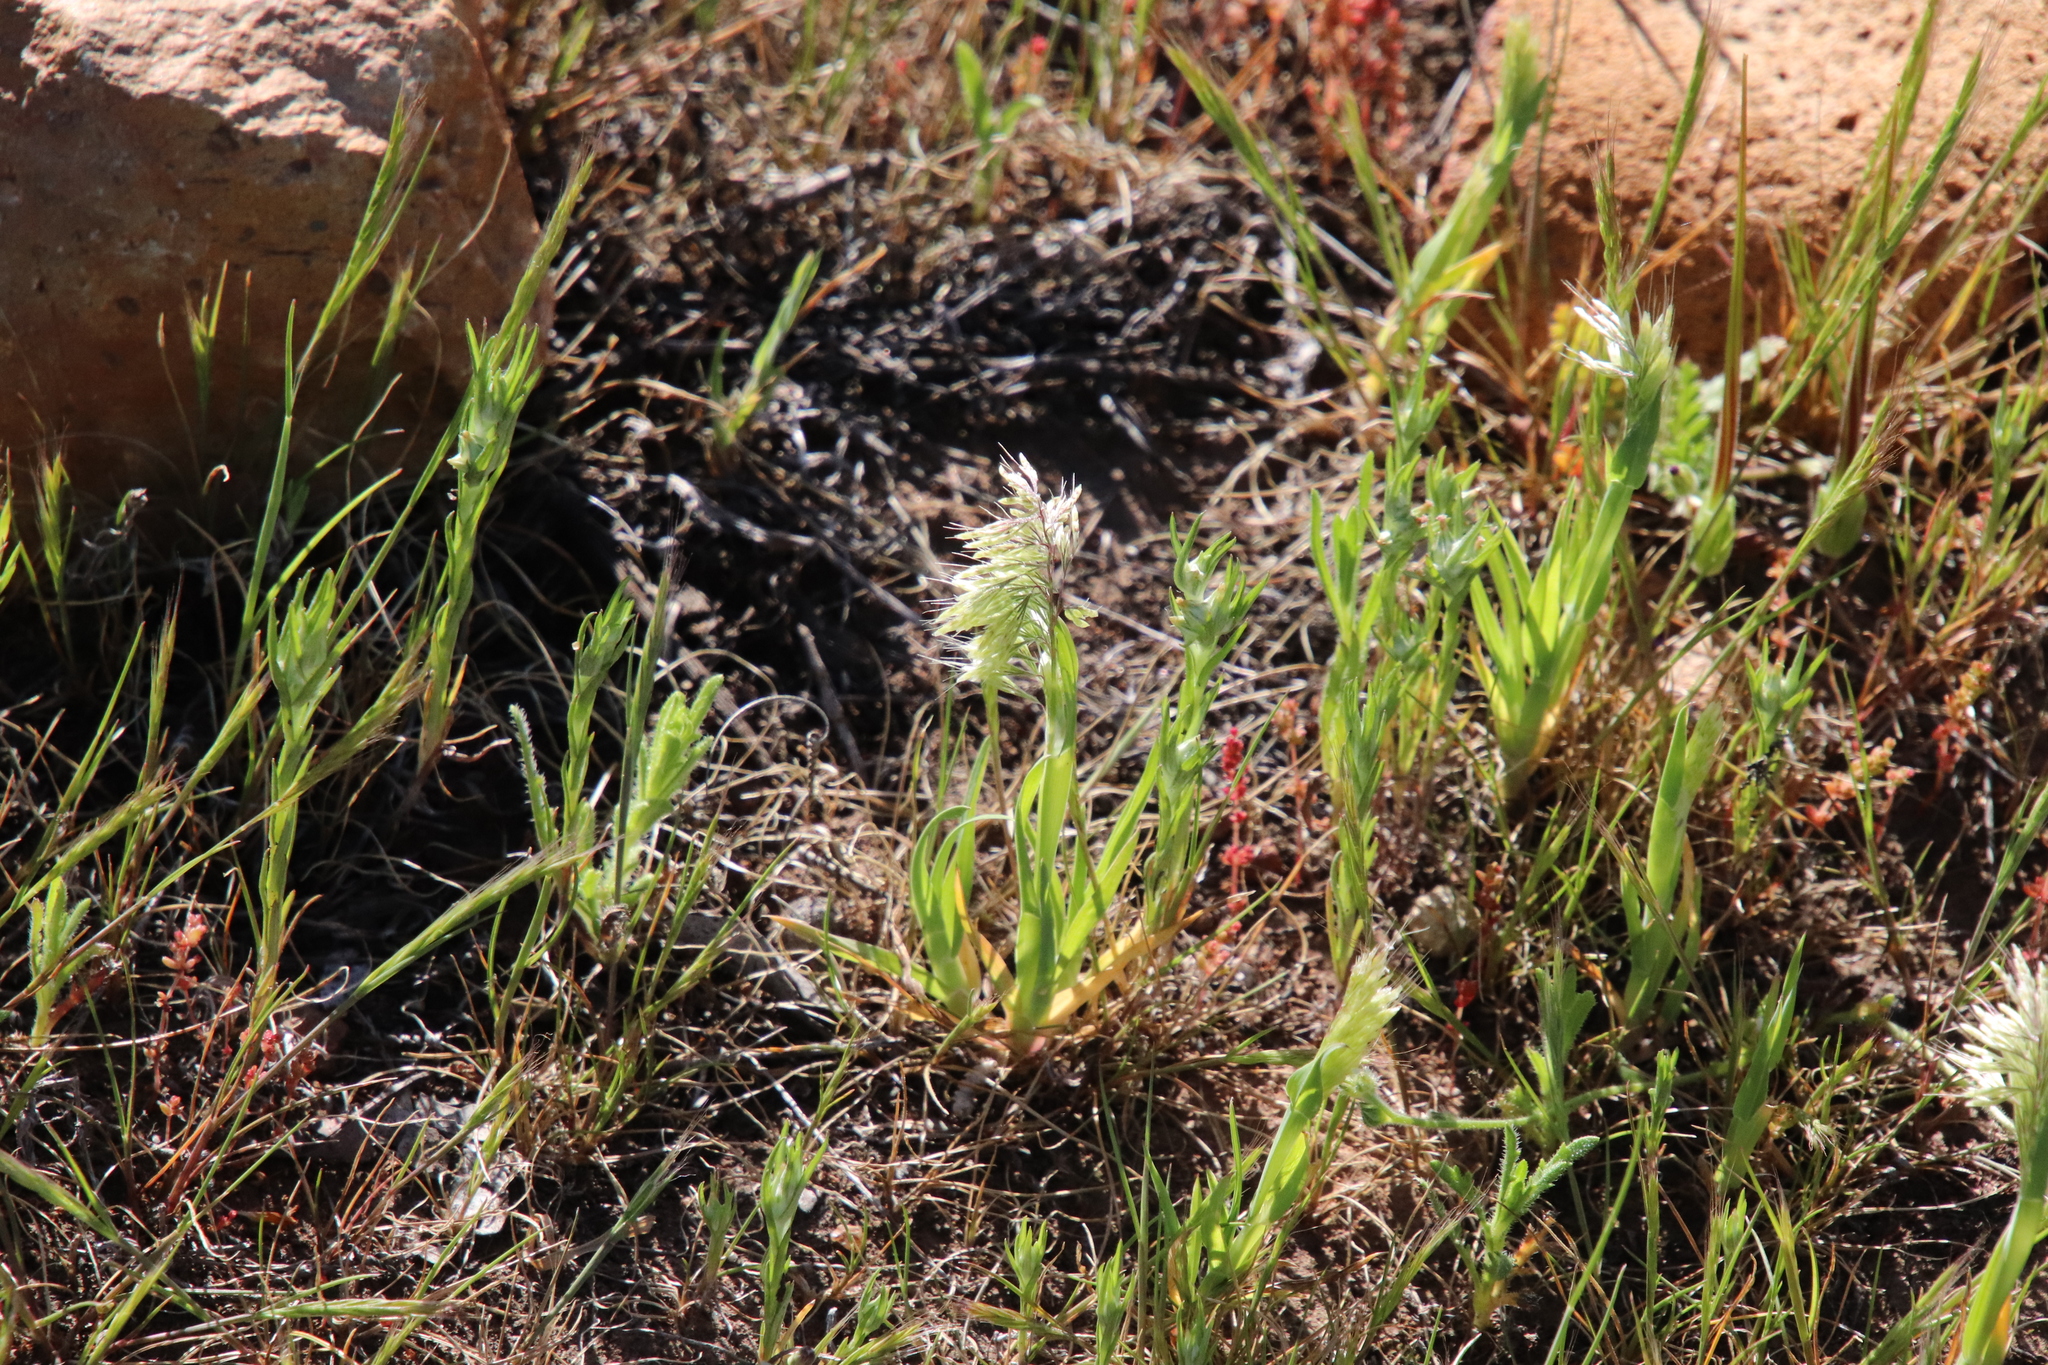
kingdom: Plantae
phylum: Tracheophyta
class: Liliopsida
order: Poales
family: Poaceae
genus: Lamarckia
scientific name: Lamarckia aurea
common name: Golden dog's-tail
